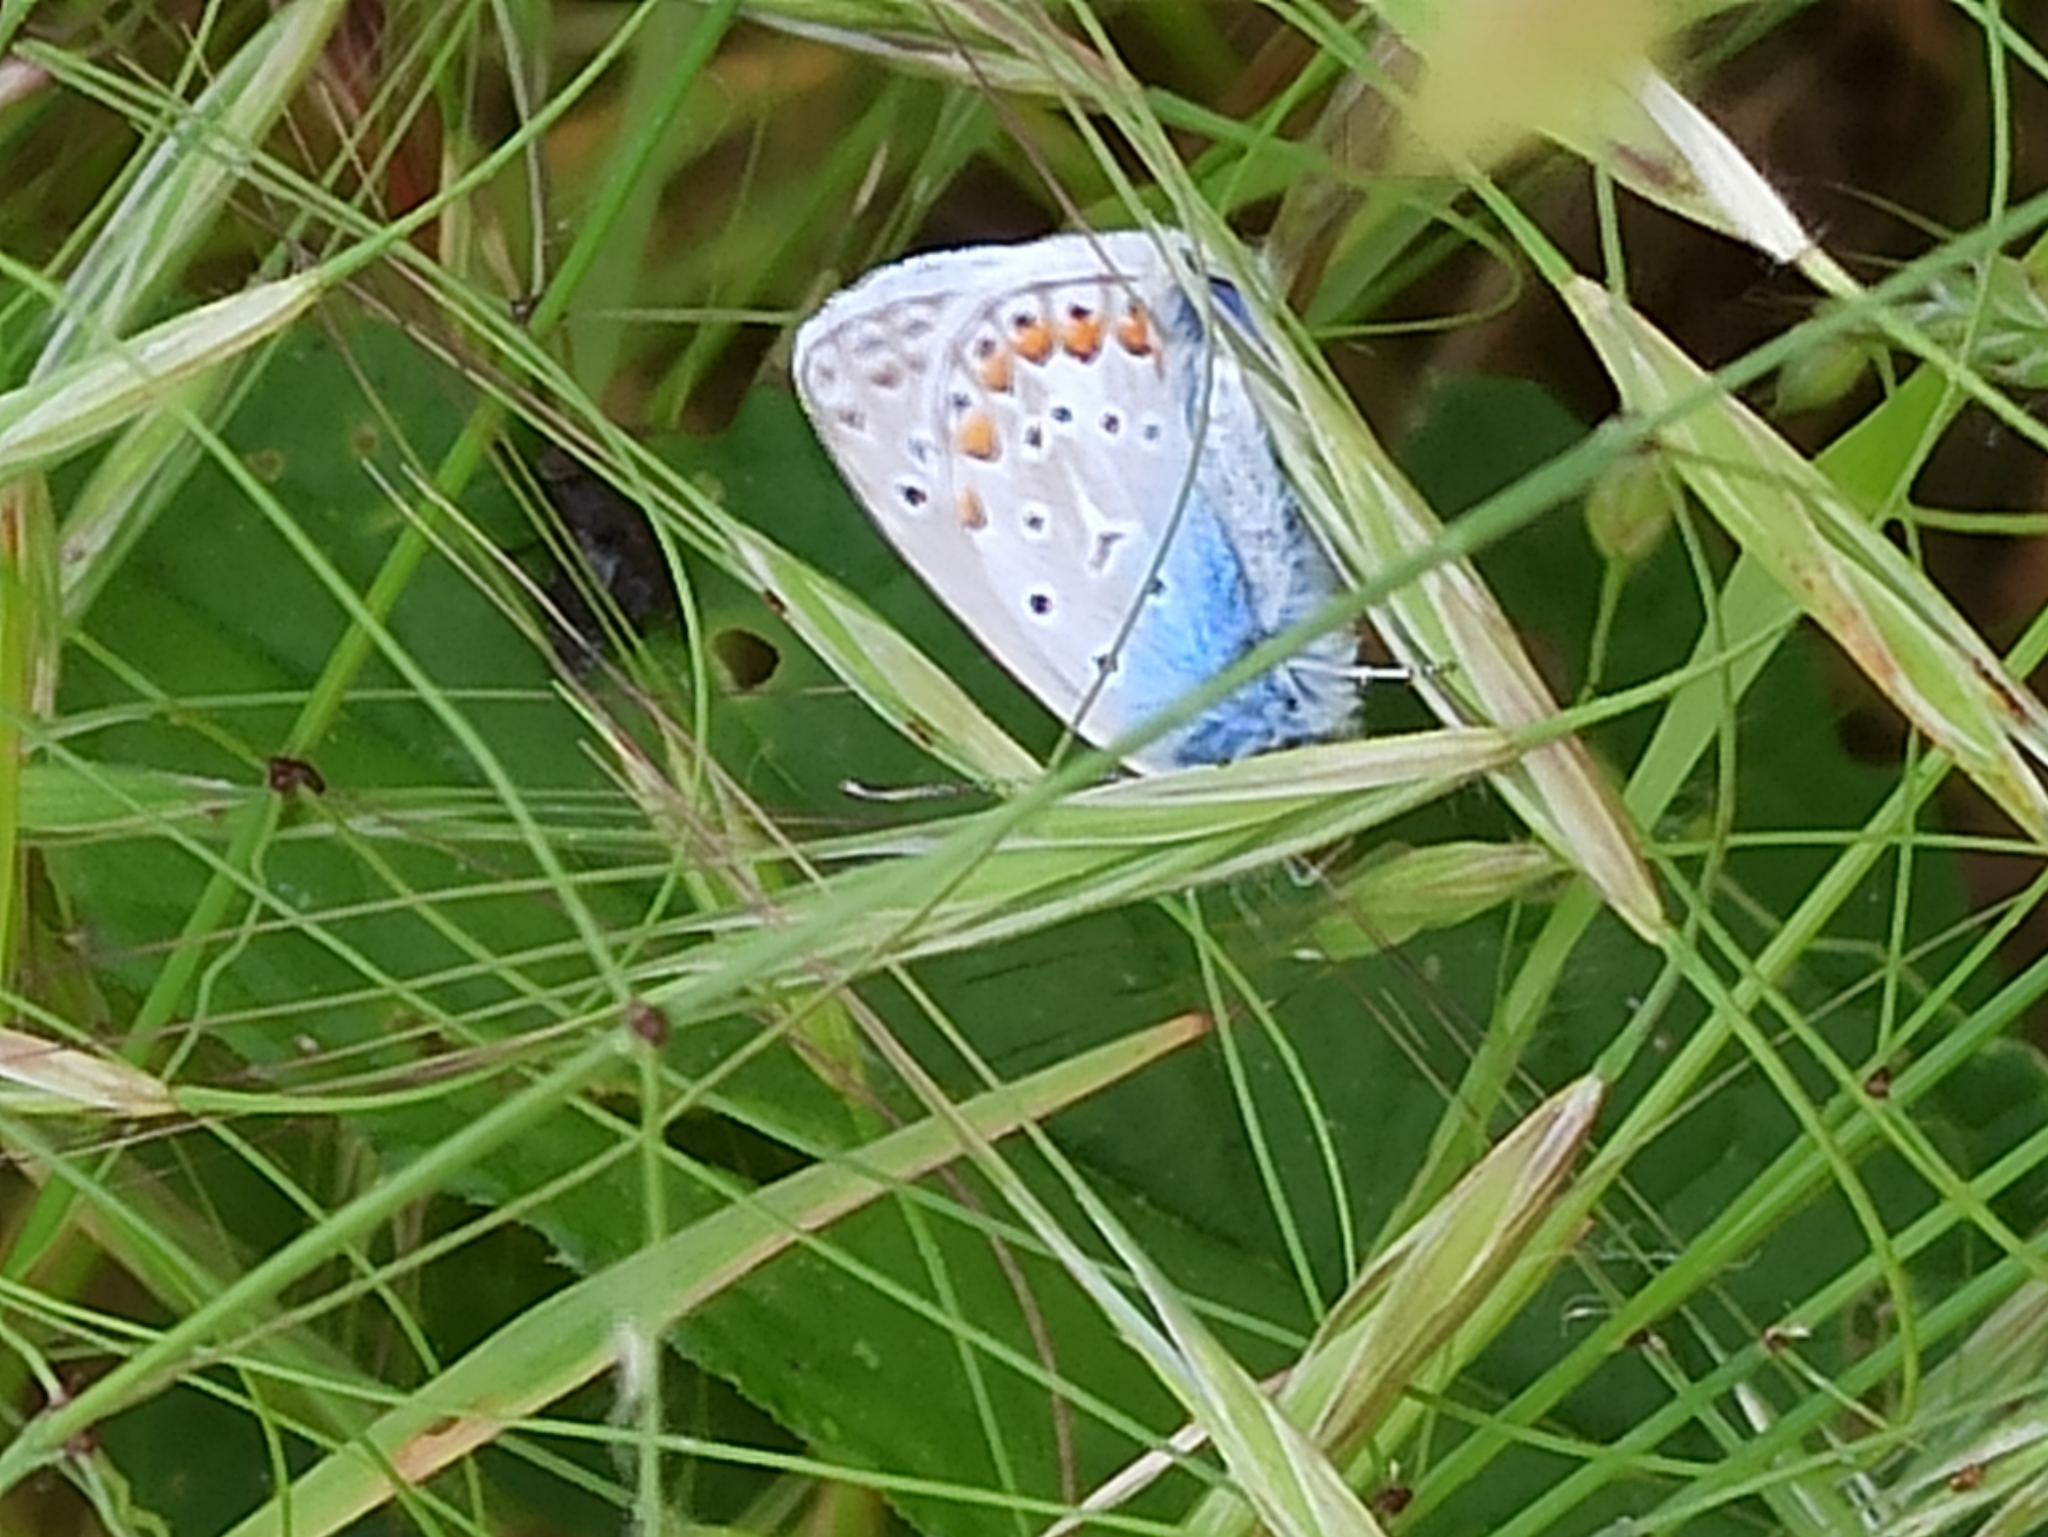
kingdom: Animalia
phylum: Arthropoda
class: Insecta
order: Lepidoptera
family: Lycaenidae
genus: Polyommatus
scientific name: Polyommatus icarus
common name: Common blue
